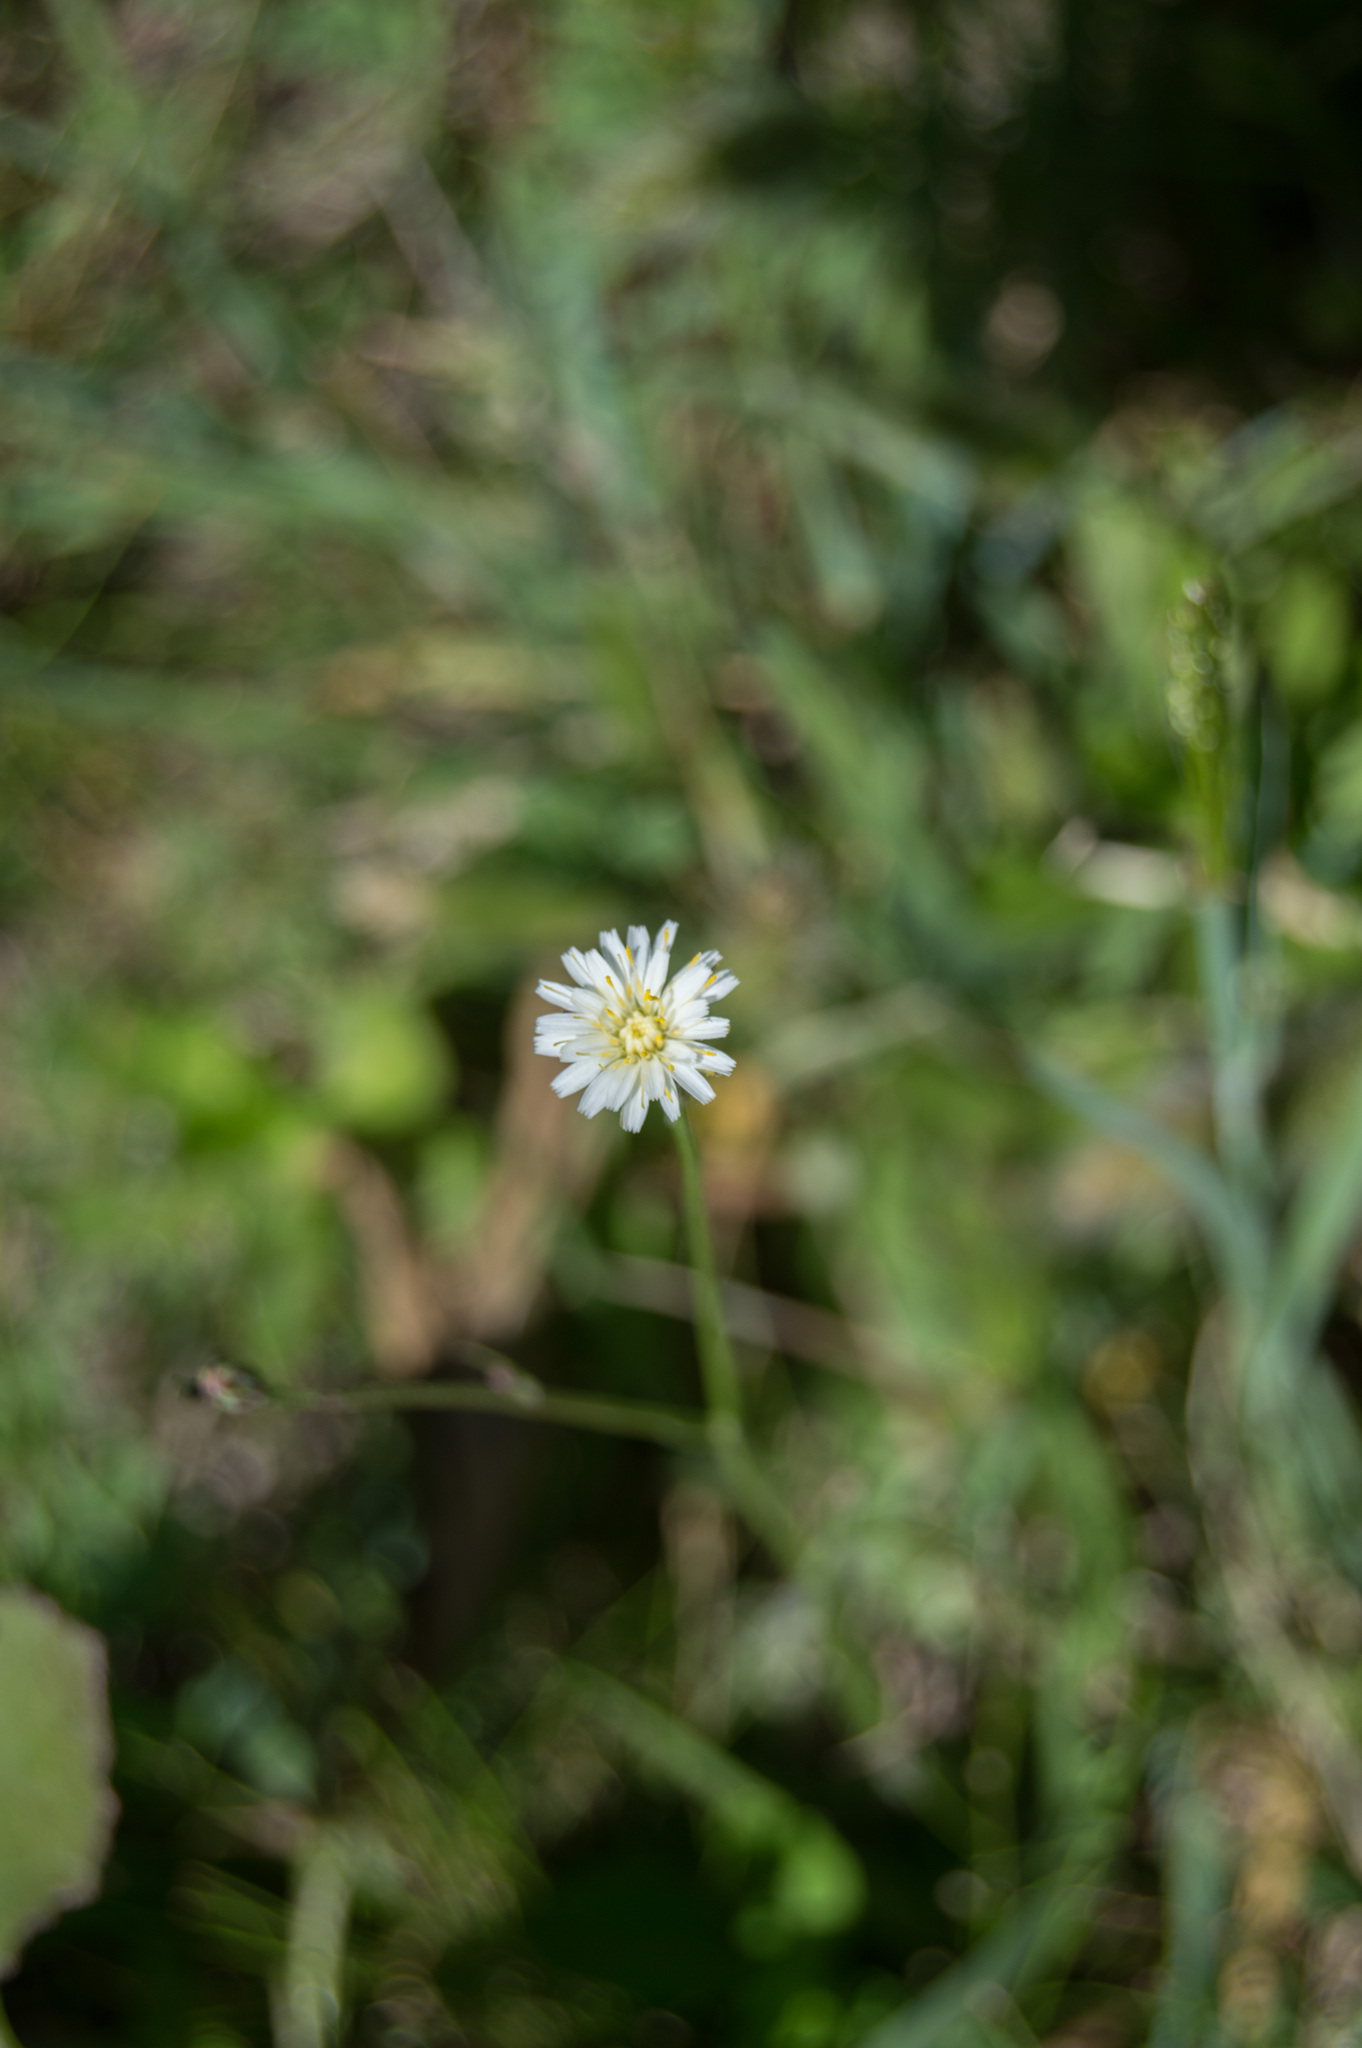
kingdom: Plantae
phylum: Tracheophyta
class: Magnoliopsida
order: Asterales
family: Asteraceae
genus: Hypochaeris
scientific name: Hypochaeris albiflora
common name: White flatweed
